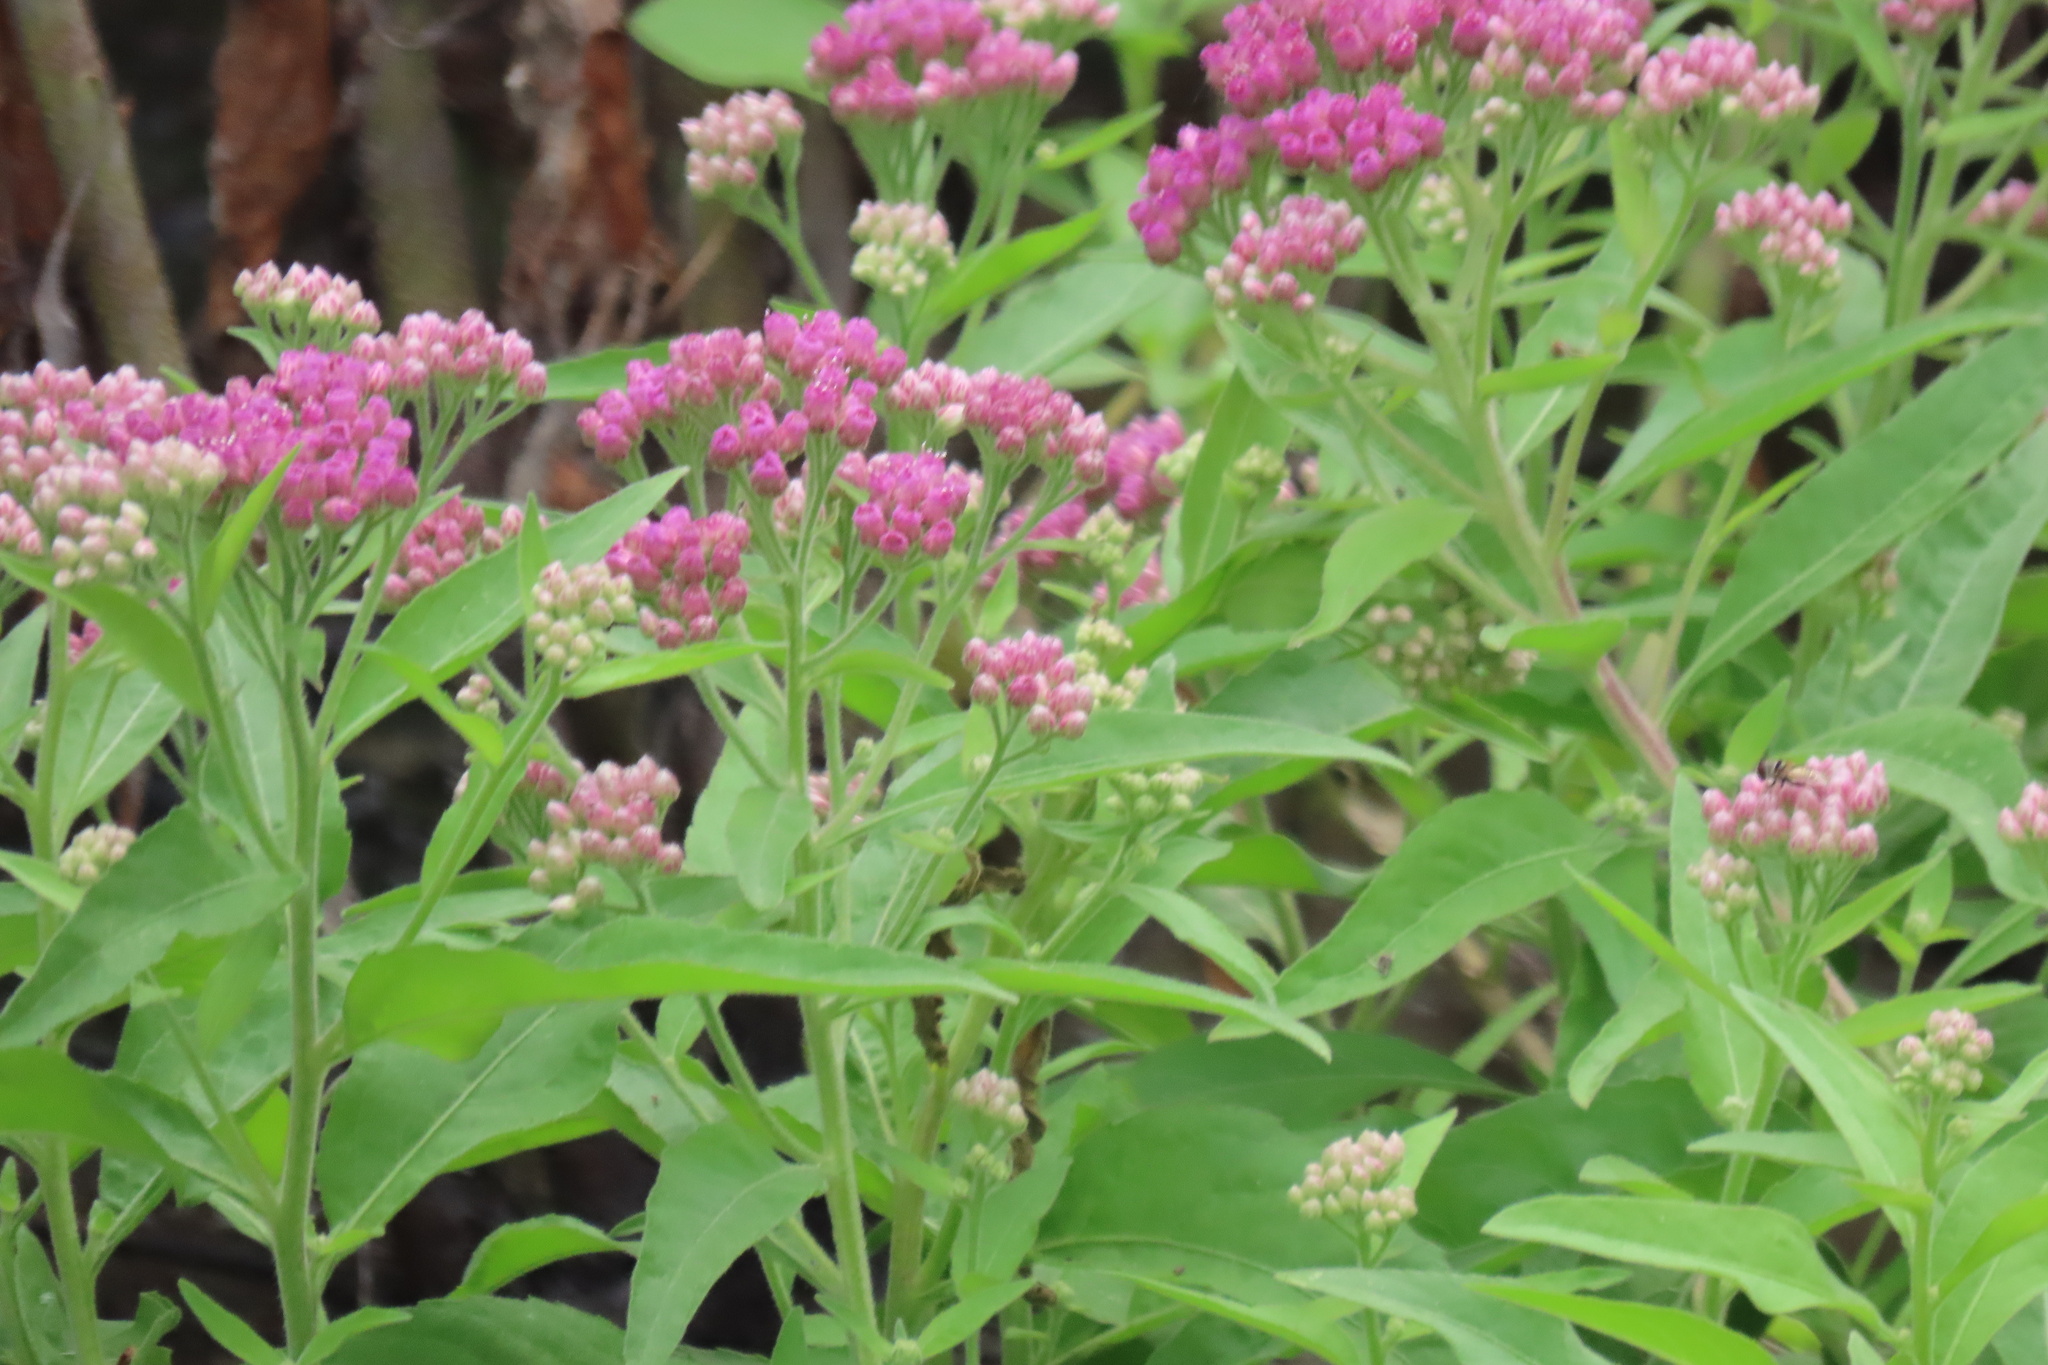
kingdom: Plantae
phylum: Tracheophyta
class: Magnoliopsida
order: Asterales
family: Asteraceae
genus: Pluchea
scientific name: Pluchea odorata
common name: Saltmarsh fleabane
